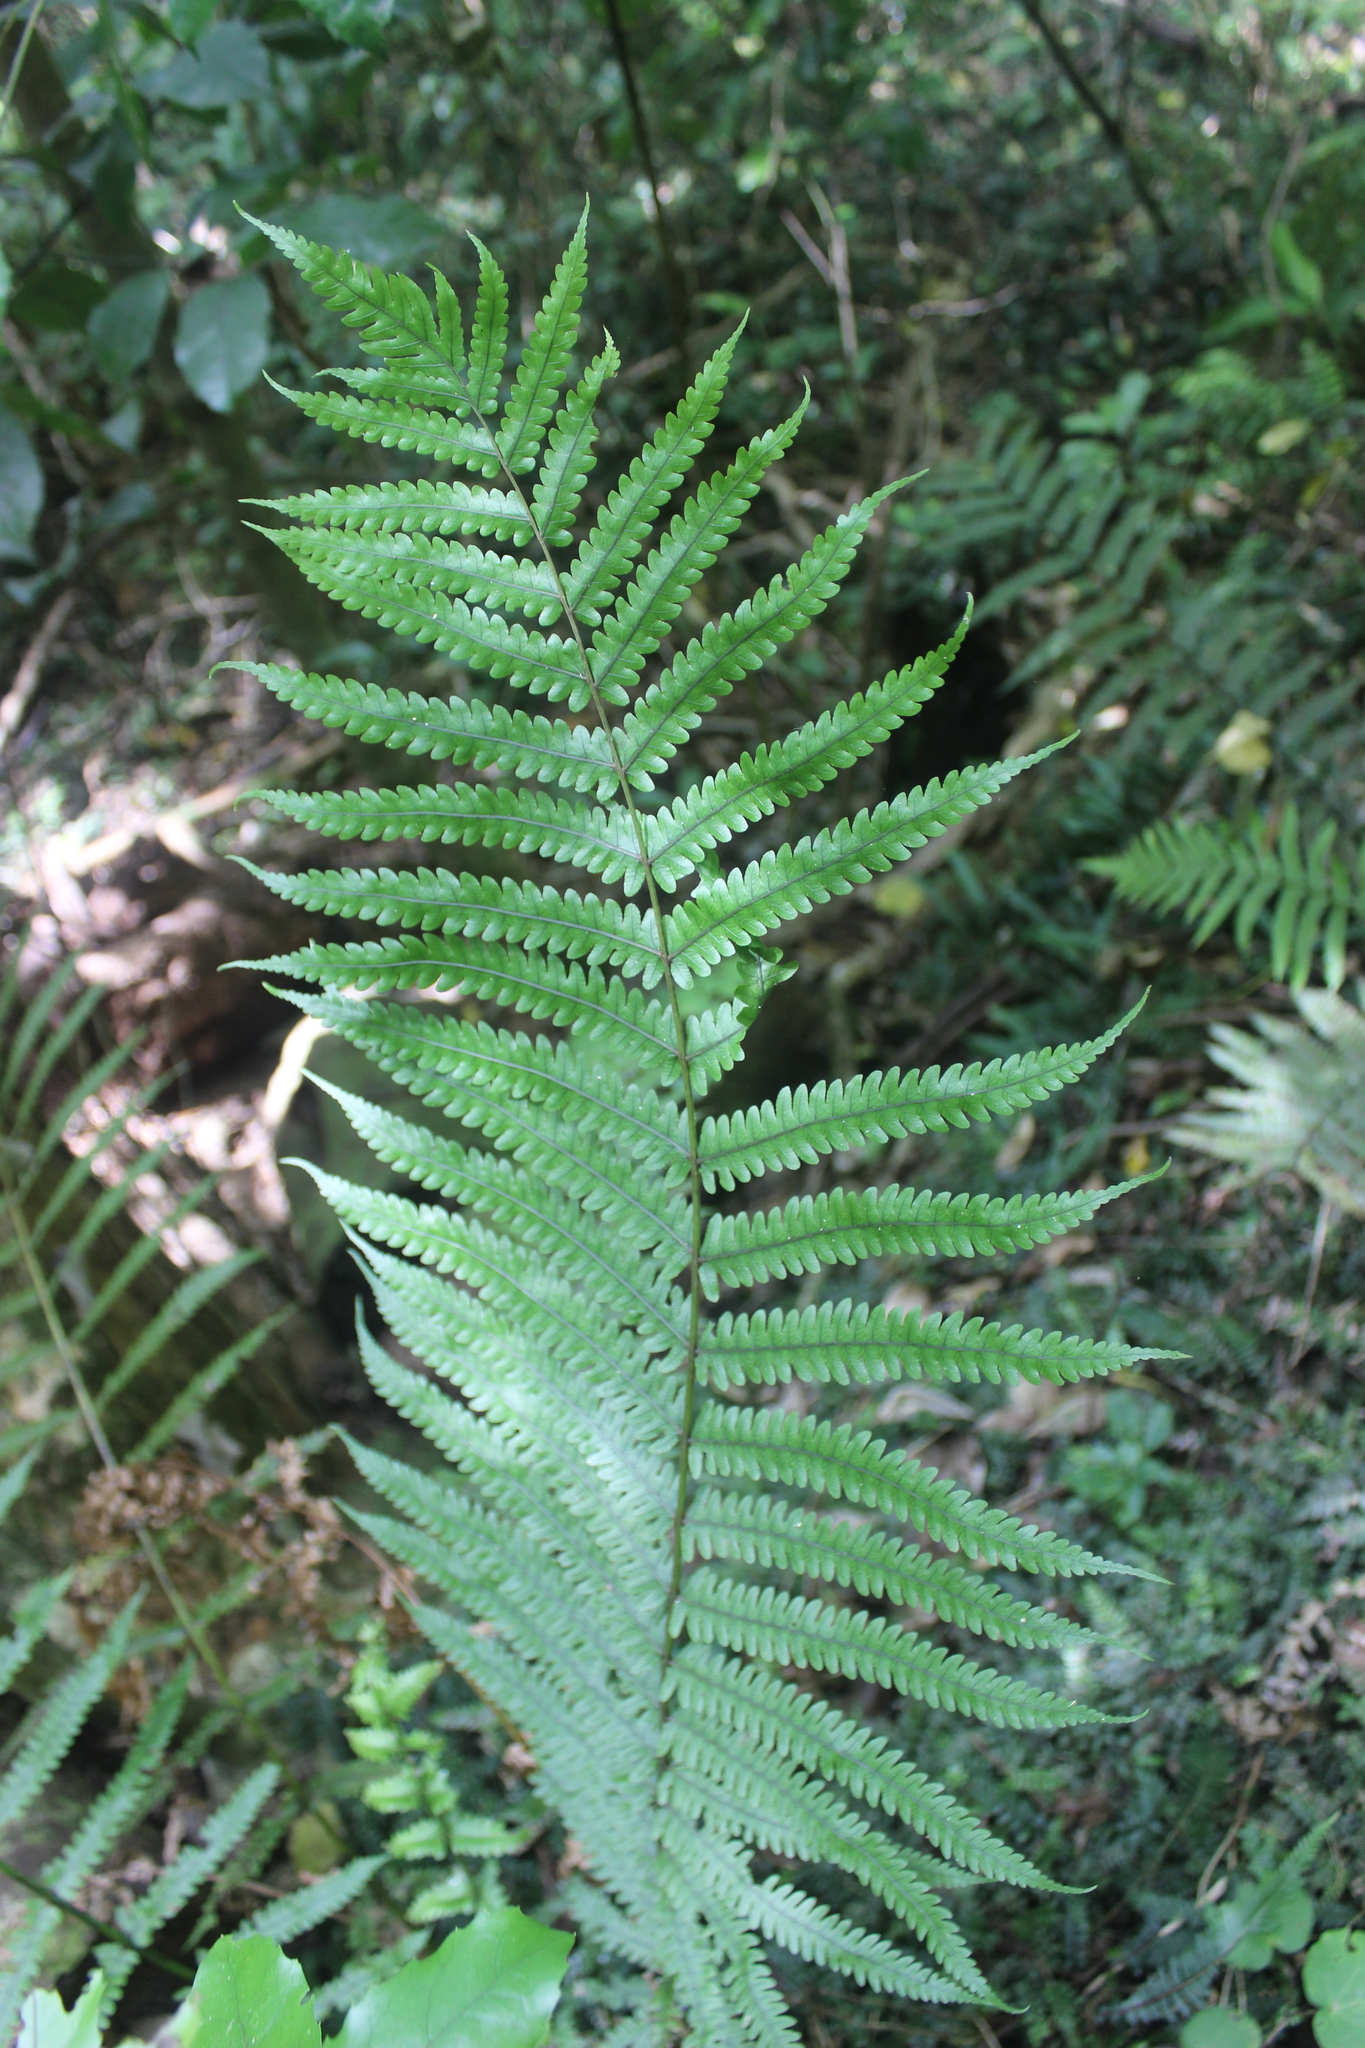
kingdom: Plantae
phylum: Tracheophyta
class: Polypodiopsida
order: Polypodiales
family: Thelypteridaceae
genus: Pakau
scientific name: Pakau pennigera
